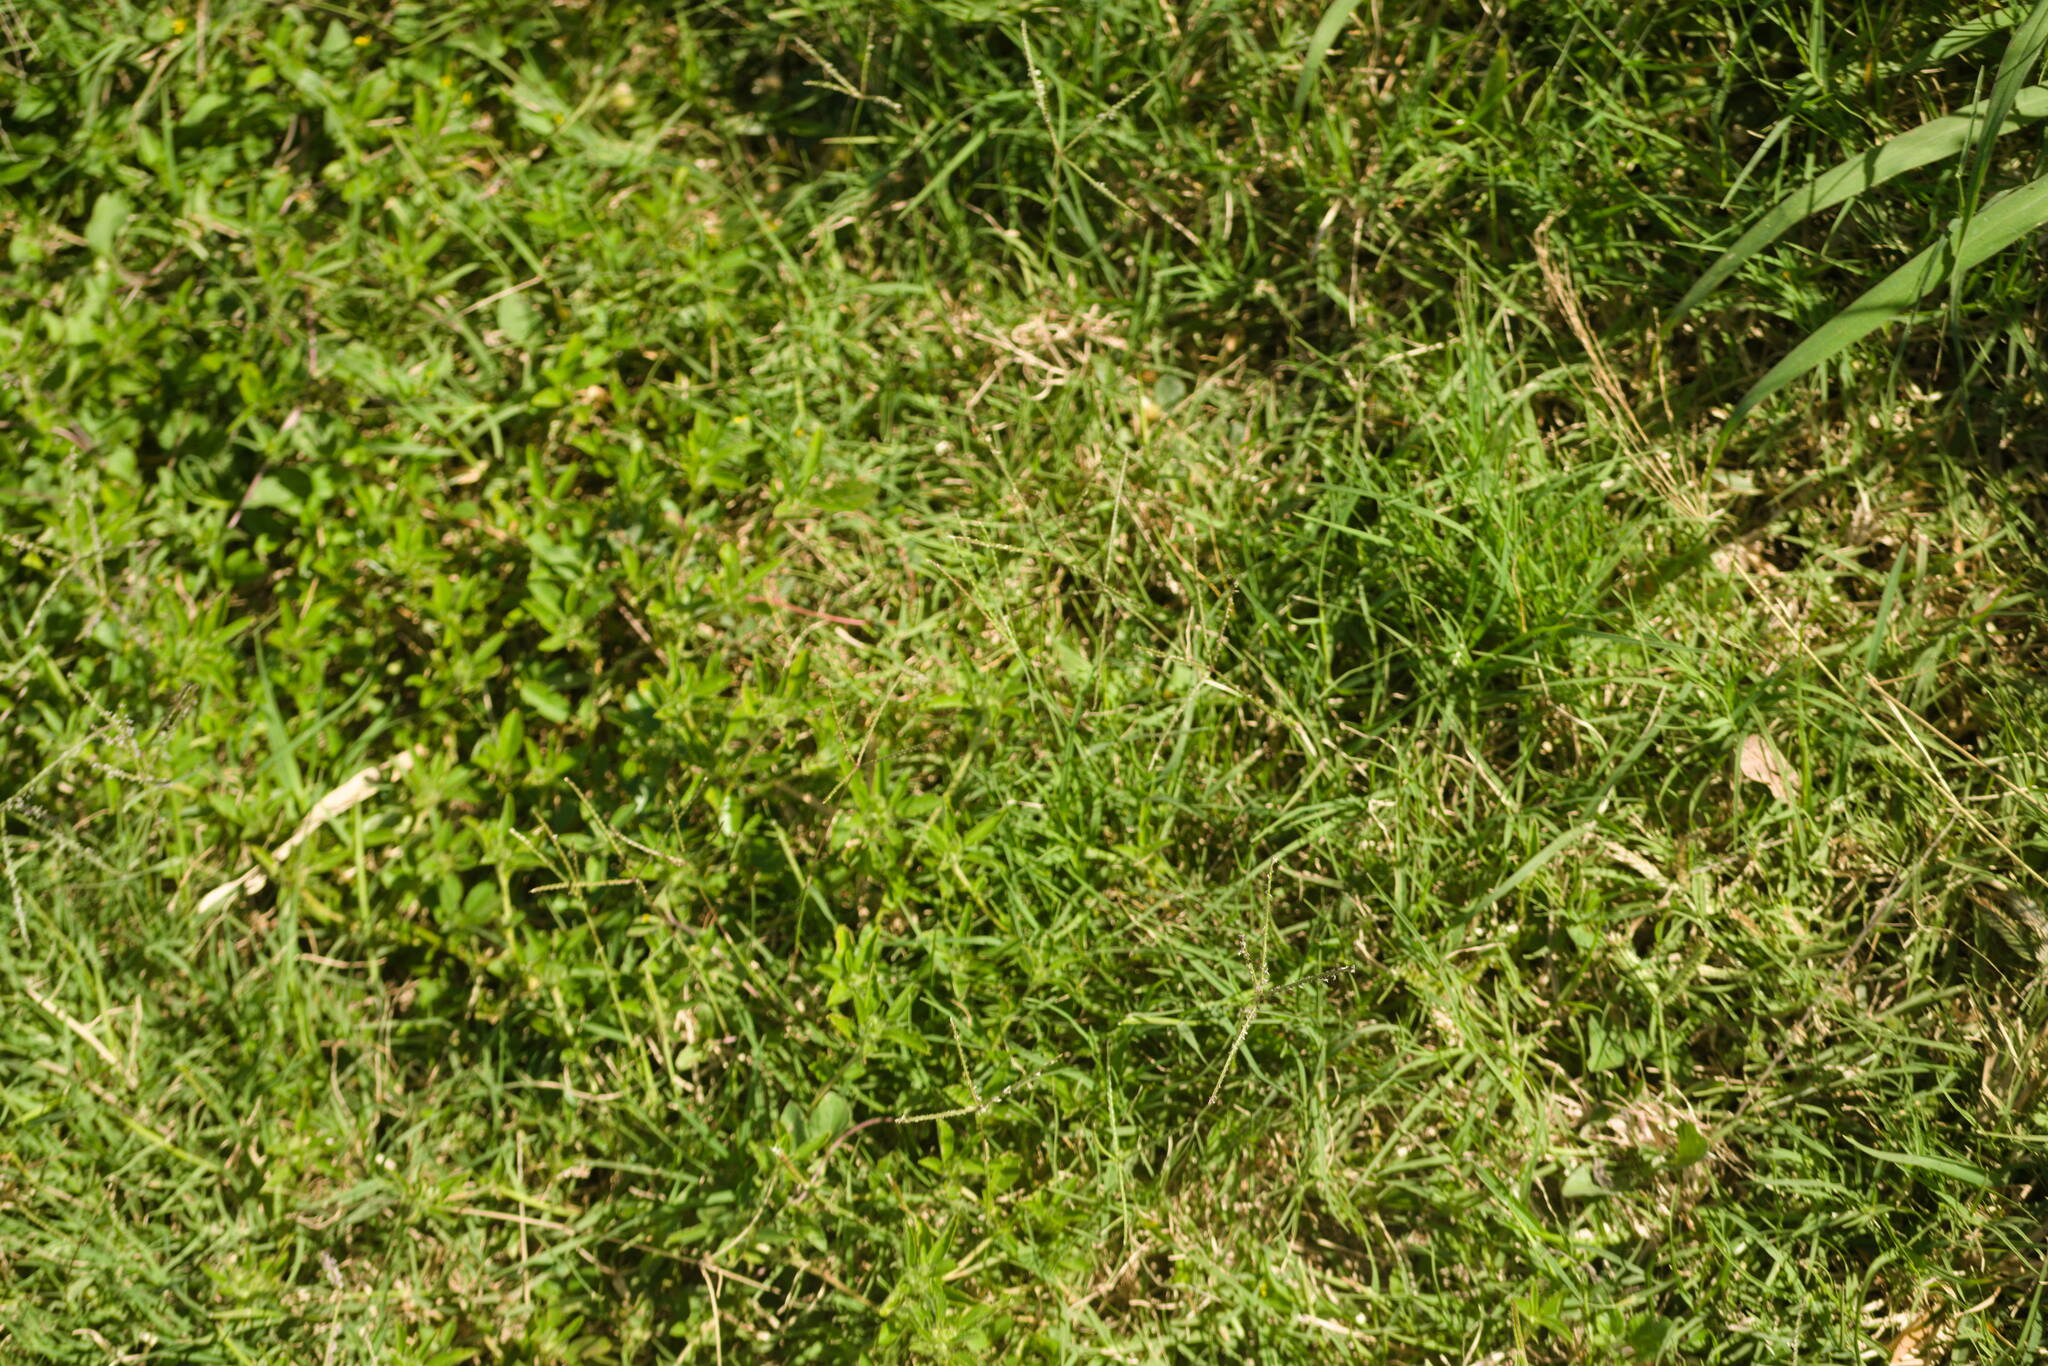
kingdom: Plantae
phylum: Tracheophyta
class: Liliopsida
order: Poales
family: Poaceae
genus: Cynodon
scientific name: Cynodon dactylon
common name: Bermuda grass
